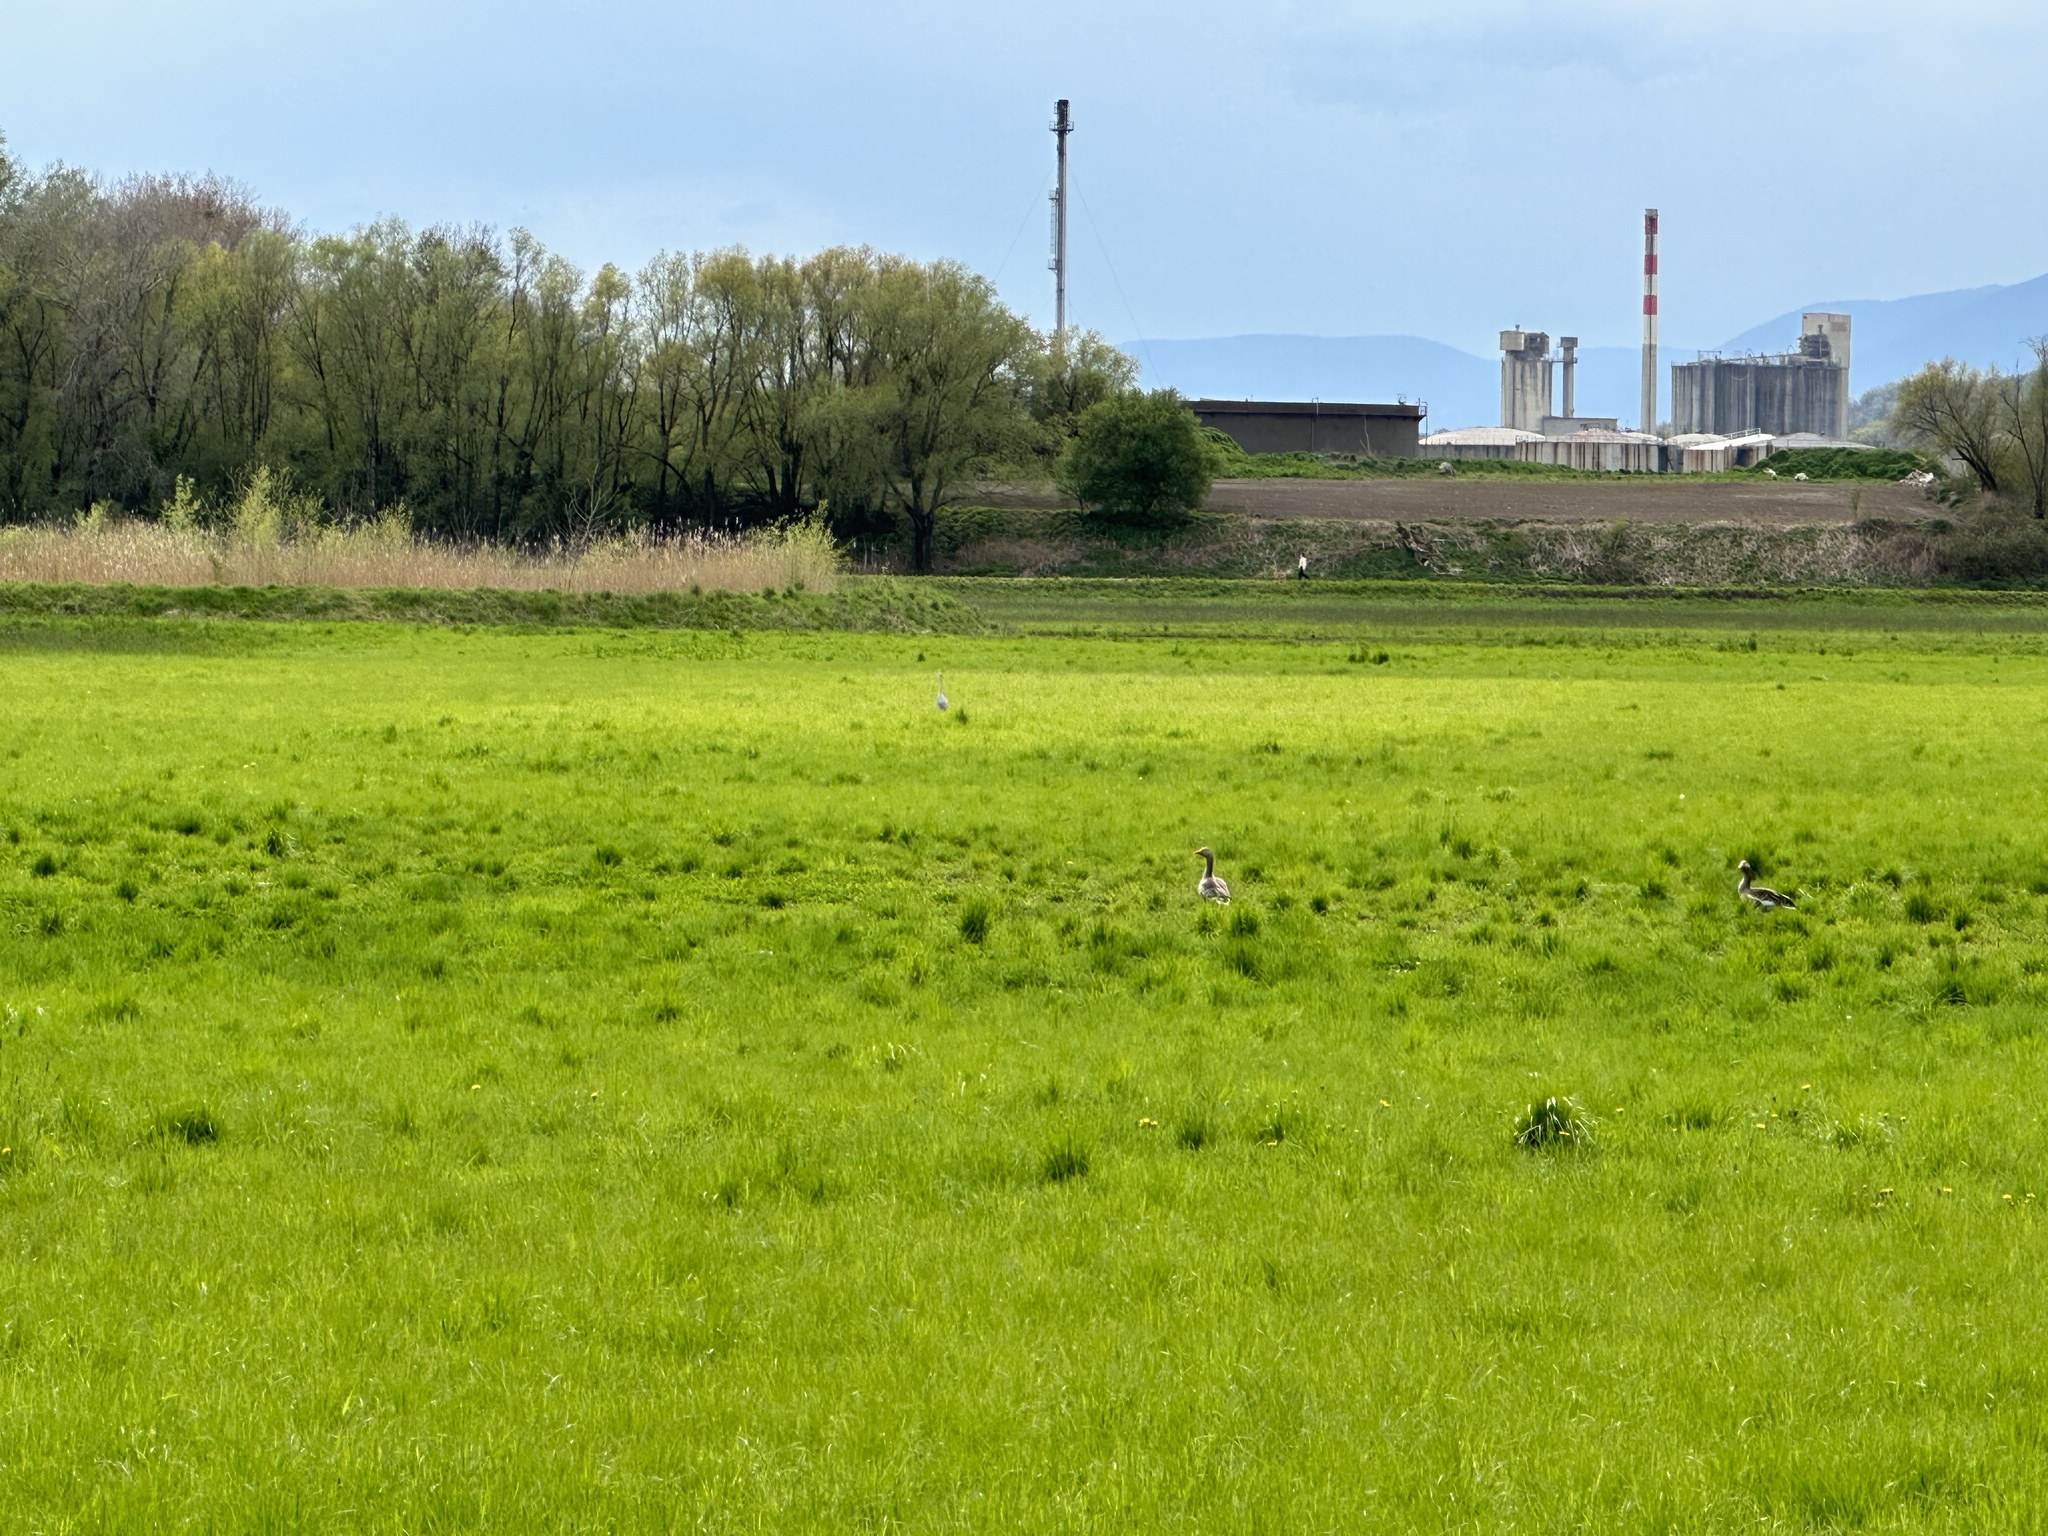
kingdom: Animalia
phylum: Chordata
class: Aves
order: Anseriformes
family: Anatidae
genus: Anser
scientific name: Anser anser
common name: Greylag goose
